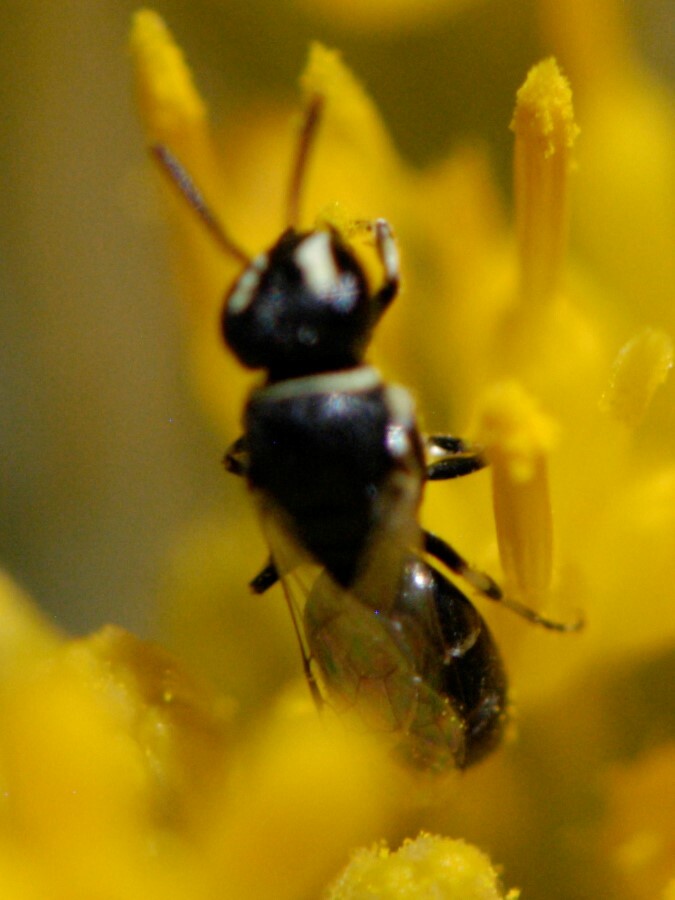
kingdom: Animalia
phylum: Arthropoda
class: Insecta
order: Hymenoptera
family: Colletidae
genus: Hylaeus
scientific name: Hylaeus
